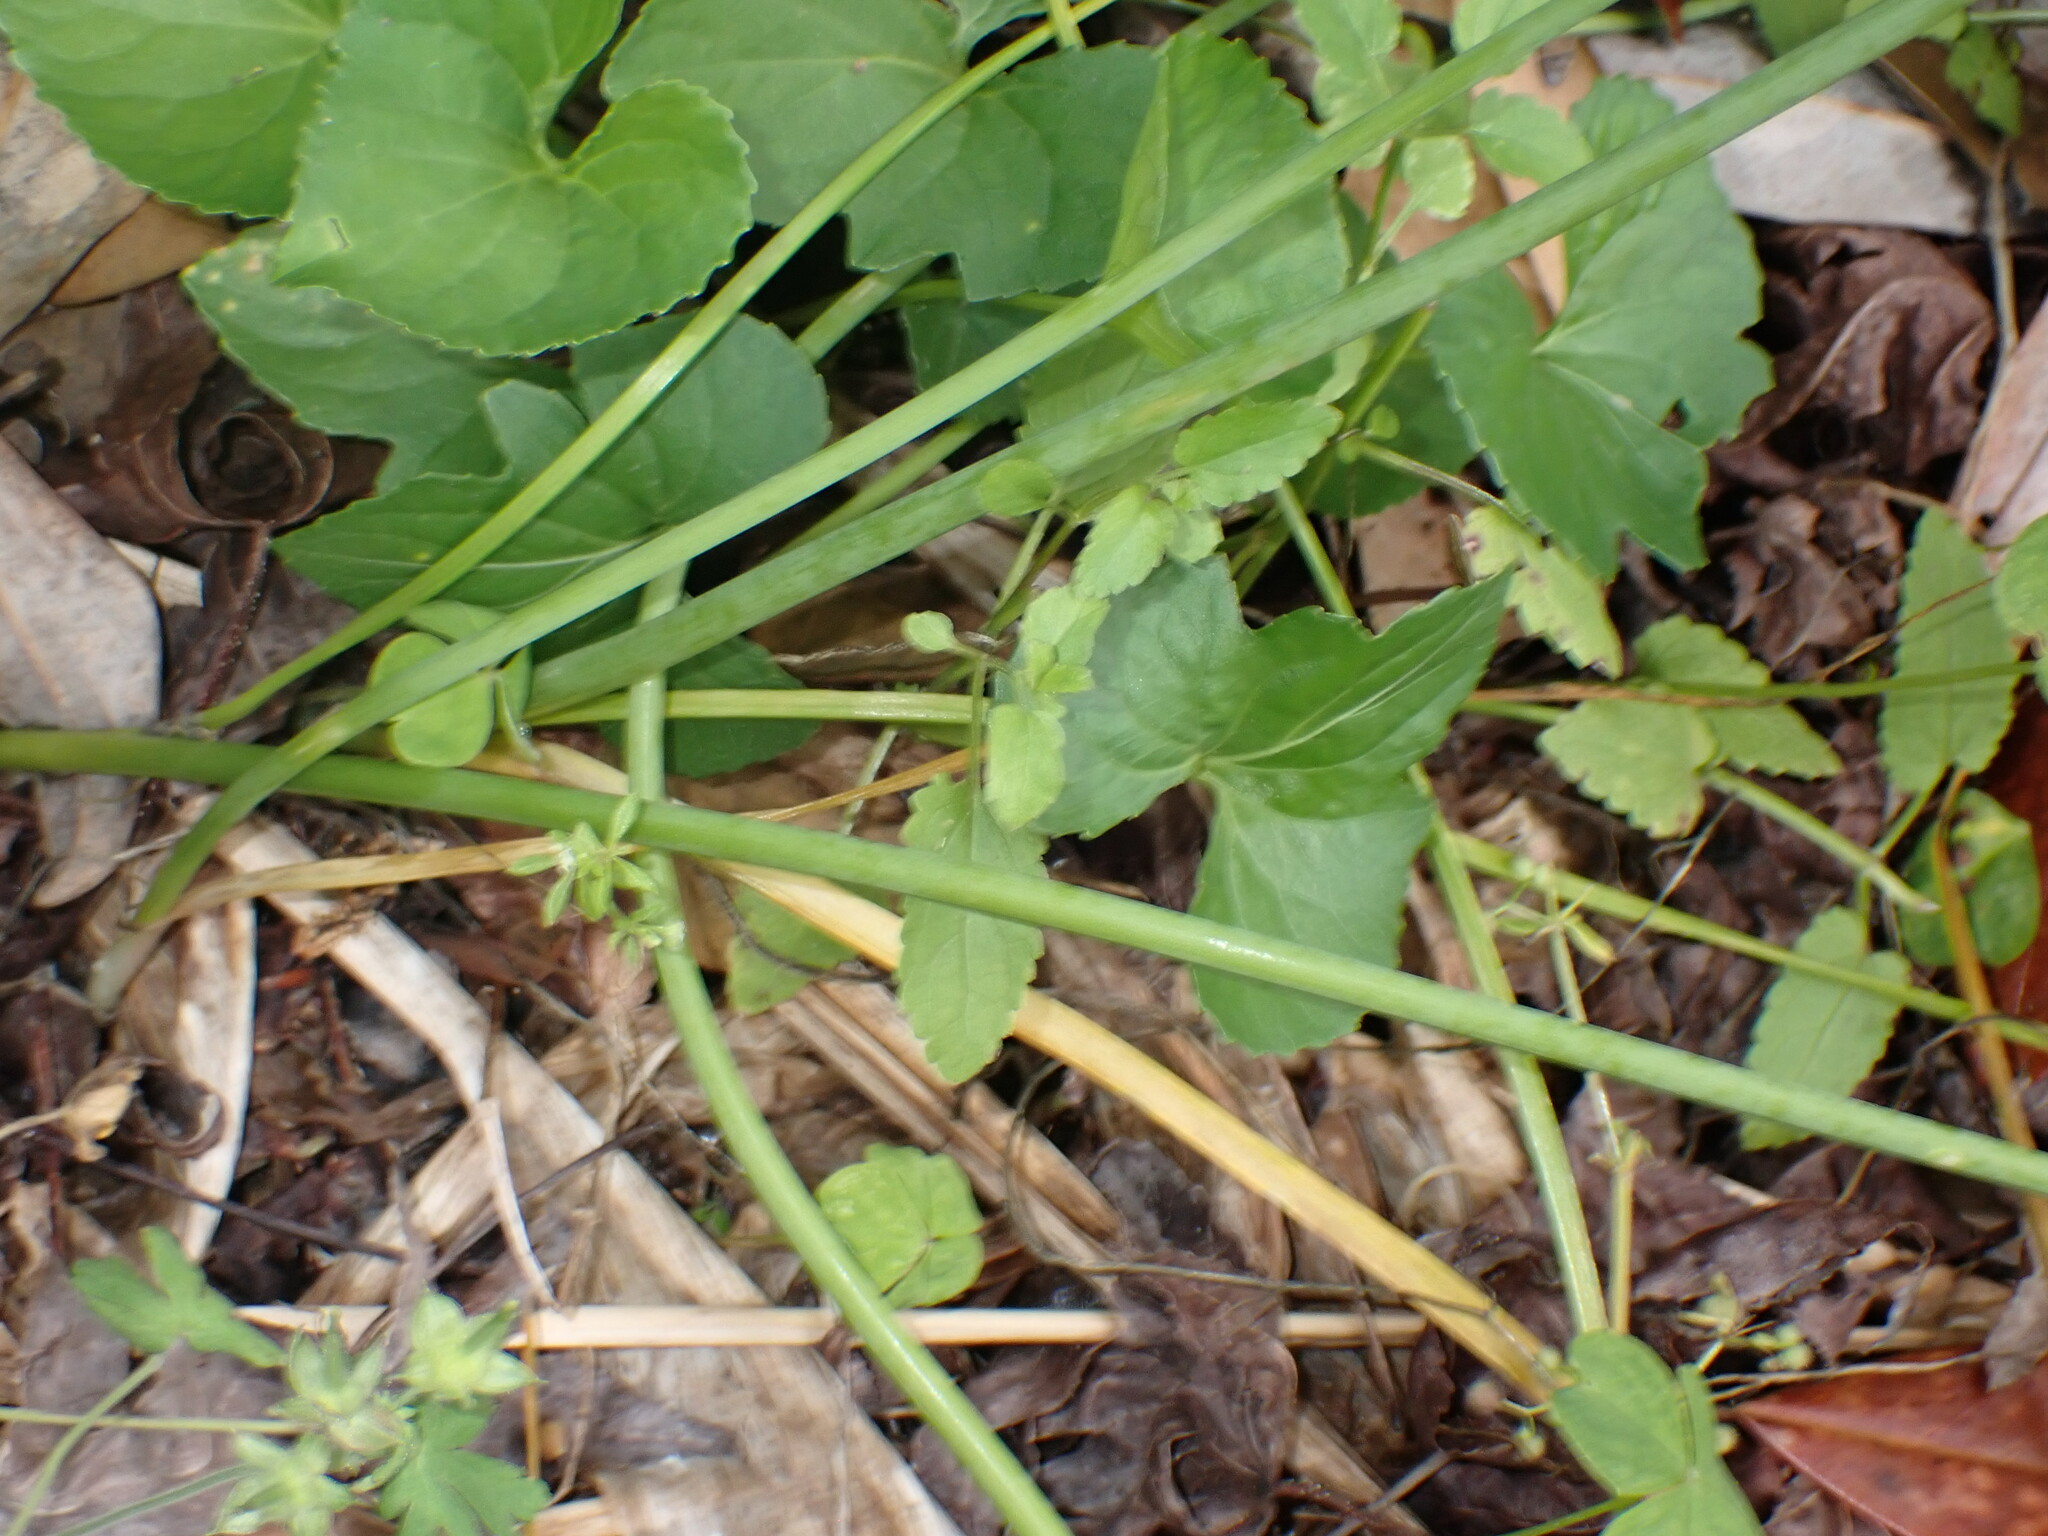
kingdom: Plantae
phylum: Tracheophyta
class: Liliopsida
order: Asparagales
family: Amaryllidaceae
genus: Allium
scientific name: Allium canadense
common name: Meadow garlic
